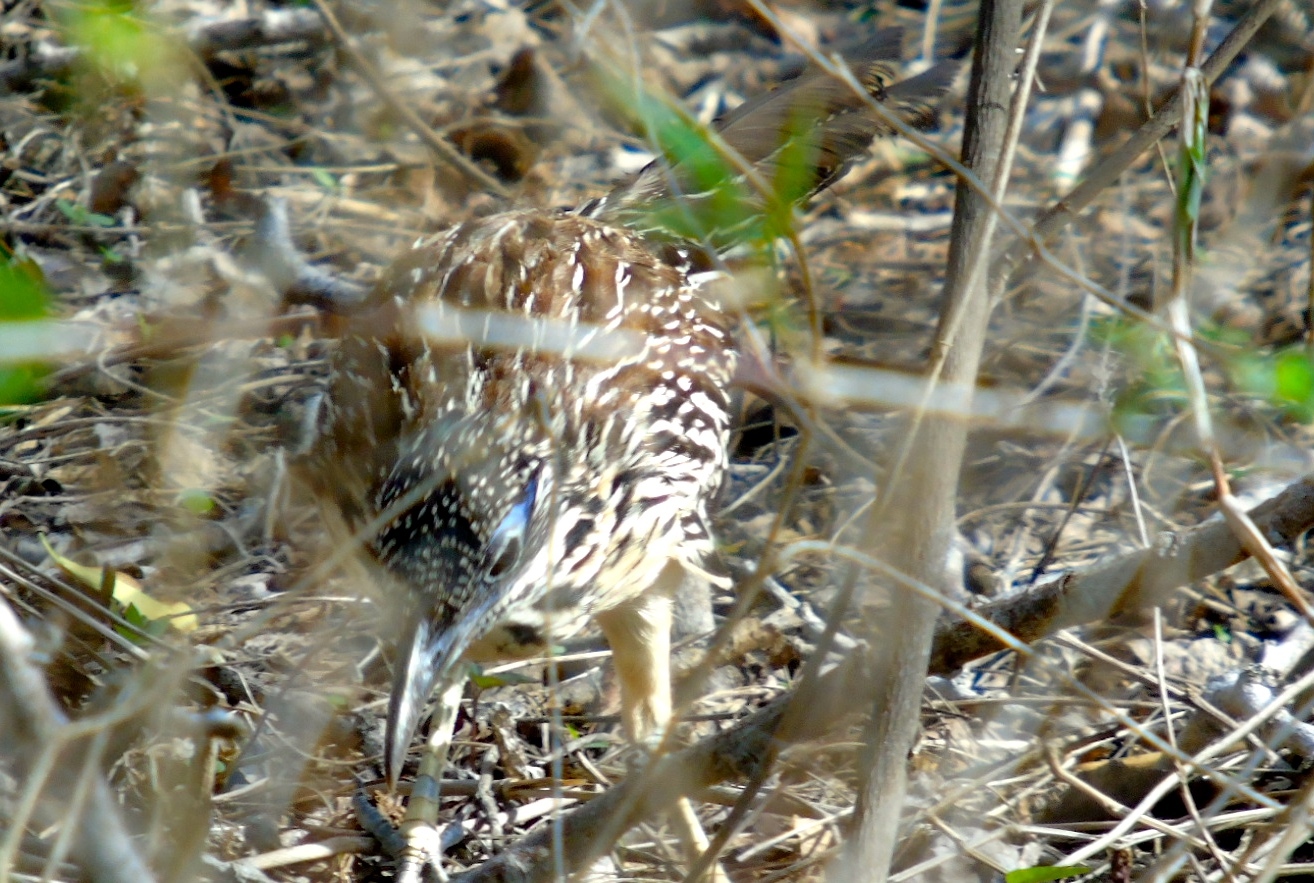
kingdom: Animalia
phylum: Chordata
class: Aves
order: Cuculiformes
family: Cuculidae
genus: Geococcyx
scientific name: Geococcyx velox
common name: Lesser roadrunner
